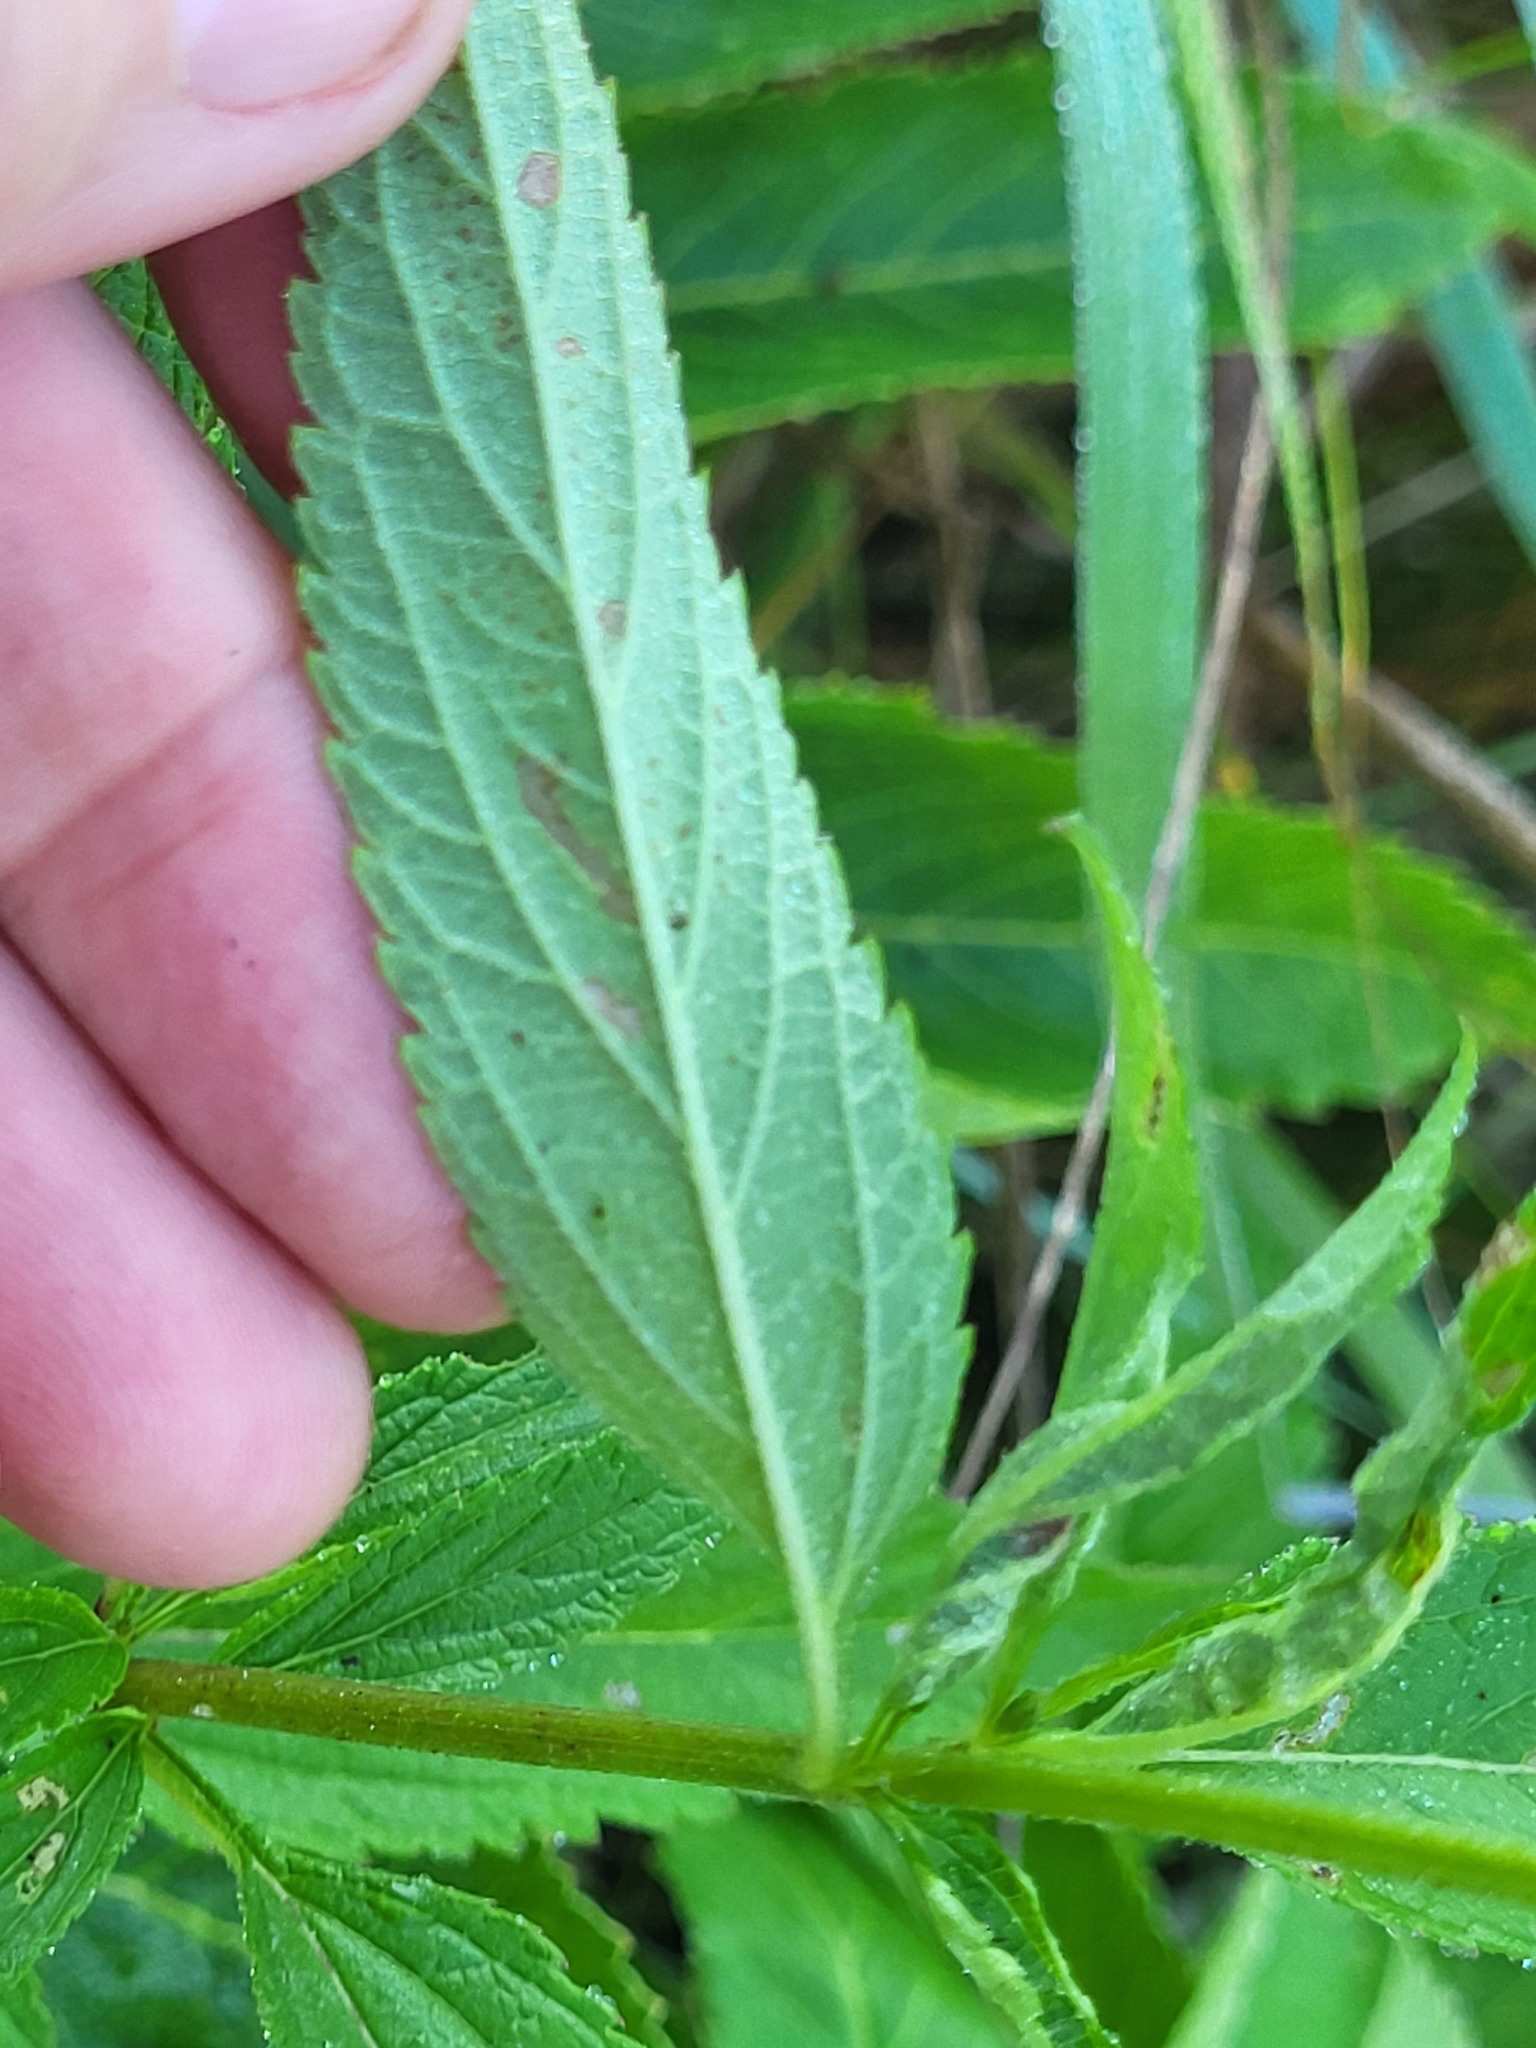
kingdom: Plantae
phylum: Tracheophyta
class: Magnoliopsida
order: Lamiales
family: Verbenaceae
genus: Verbena
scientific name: Verbena hastata
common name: American blue vervain
